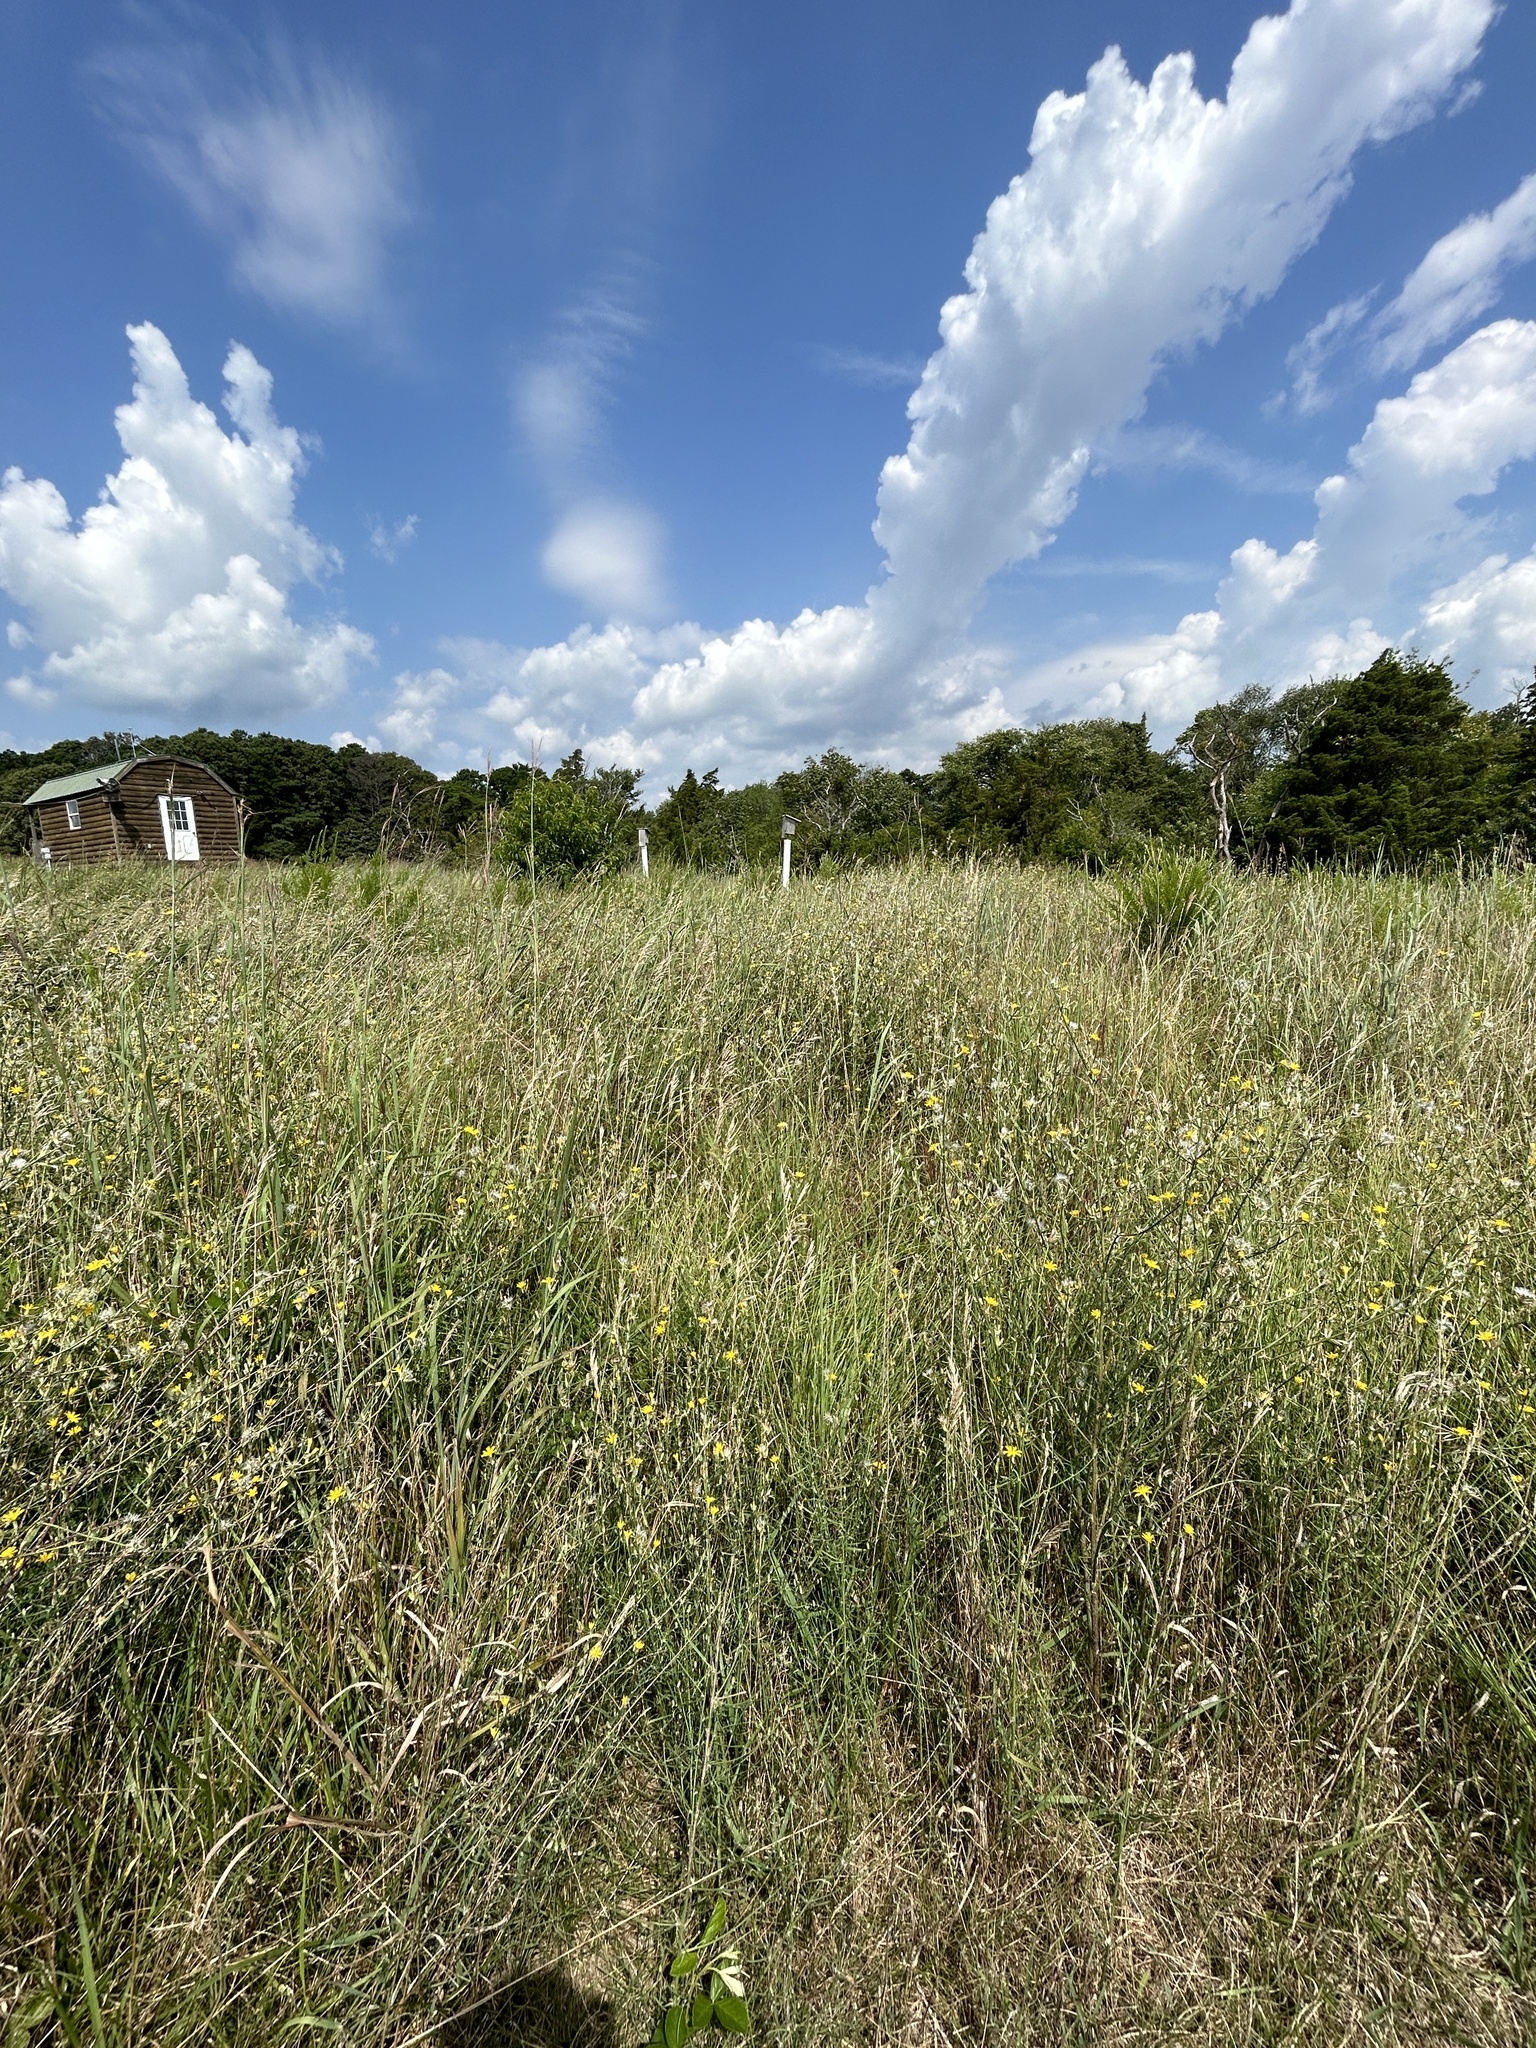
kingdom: Plantae
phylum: Tracheophyta
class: Magnoliopsida
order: Asterales
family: Asteraceae
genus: Chondrilla
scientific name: Chondrilla juncea
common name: Skeleton weed
